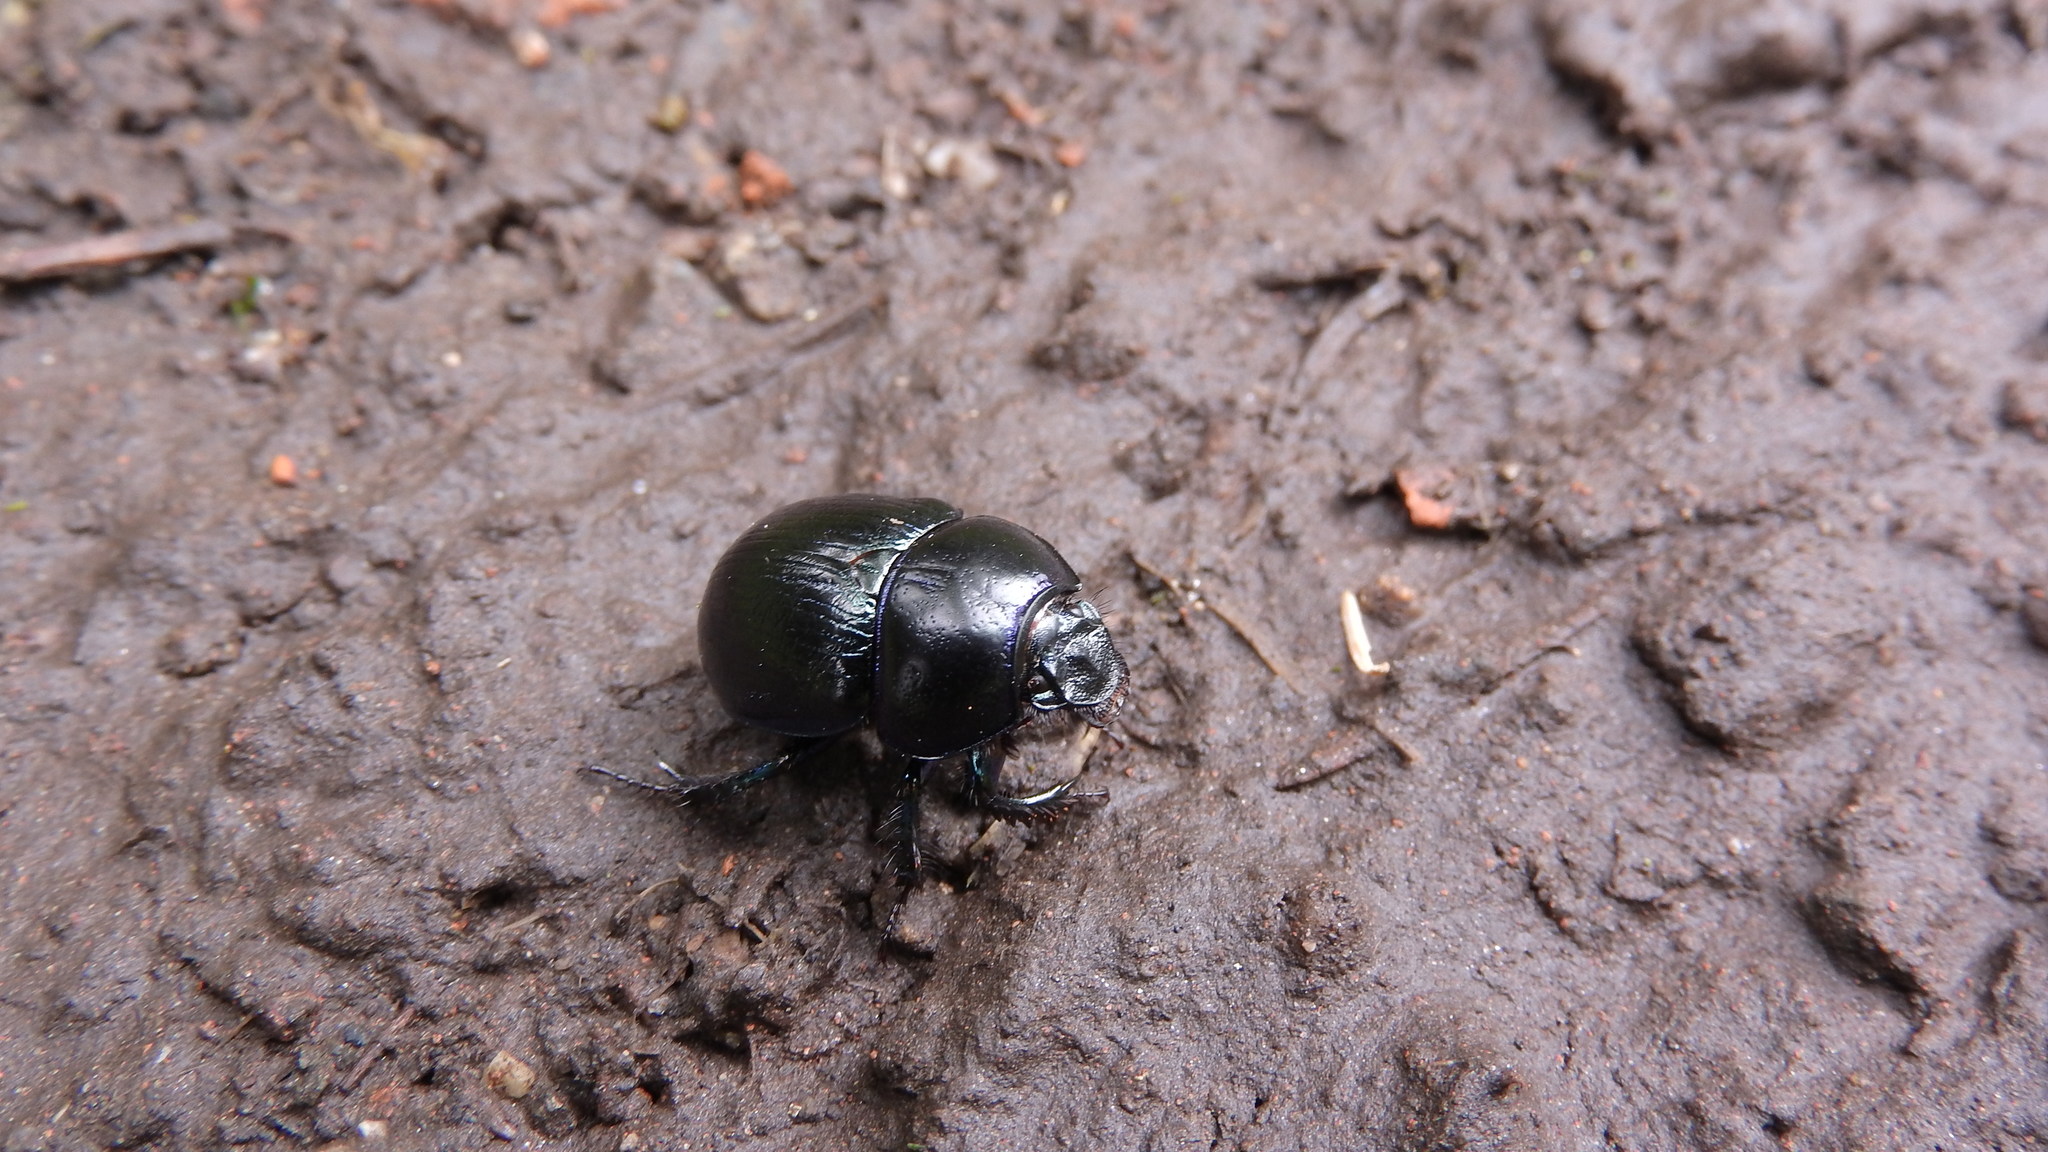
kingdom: Animalia
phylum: Arthropoda
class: Insecta
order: Coleoptera
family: Geotrupidae
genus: Anoplotrupes
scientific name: Anoplotrupes stercorosus
